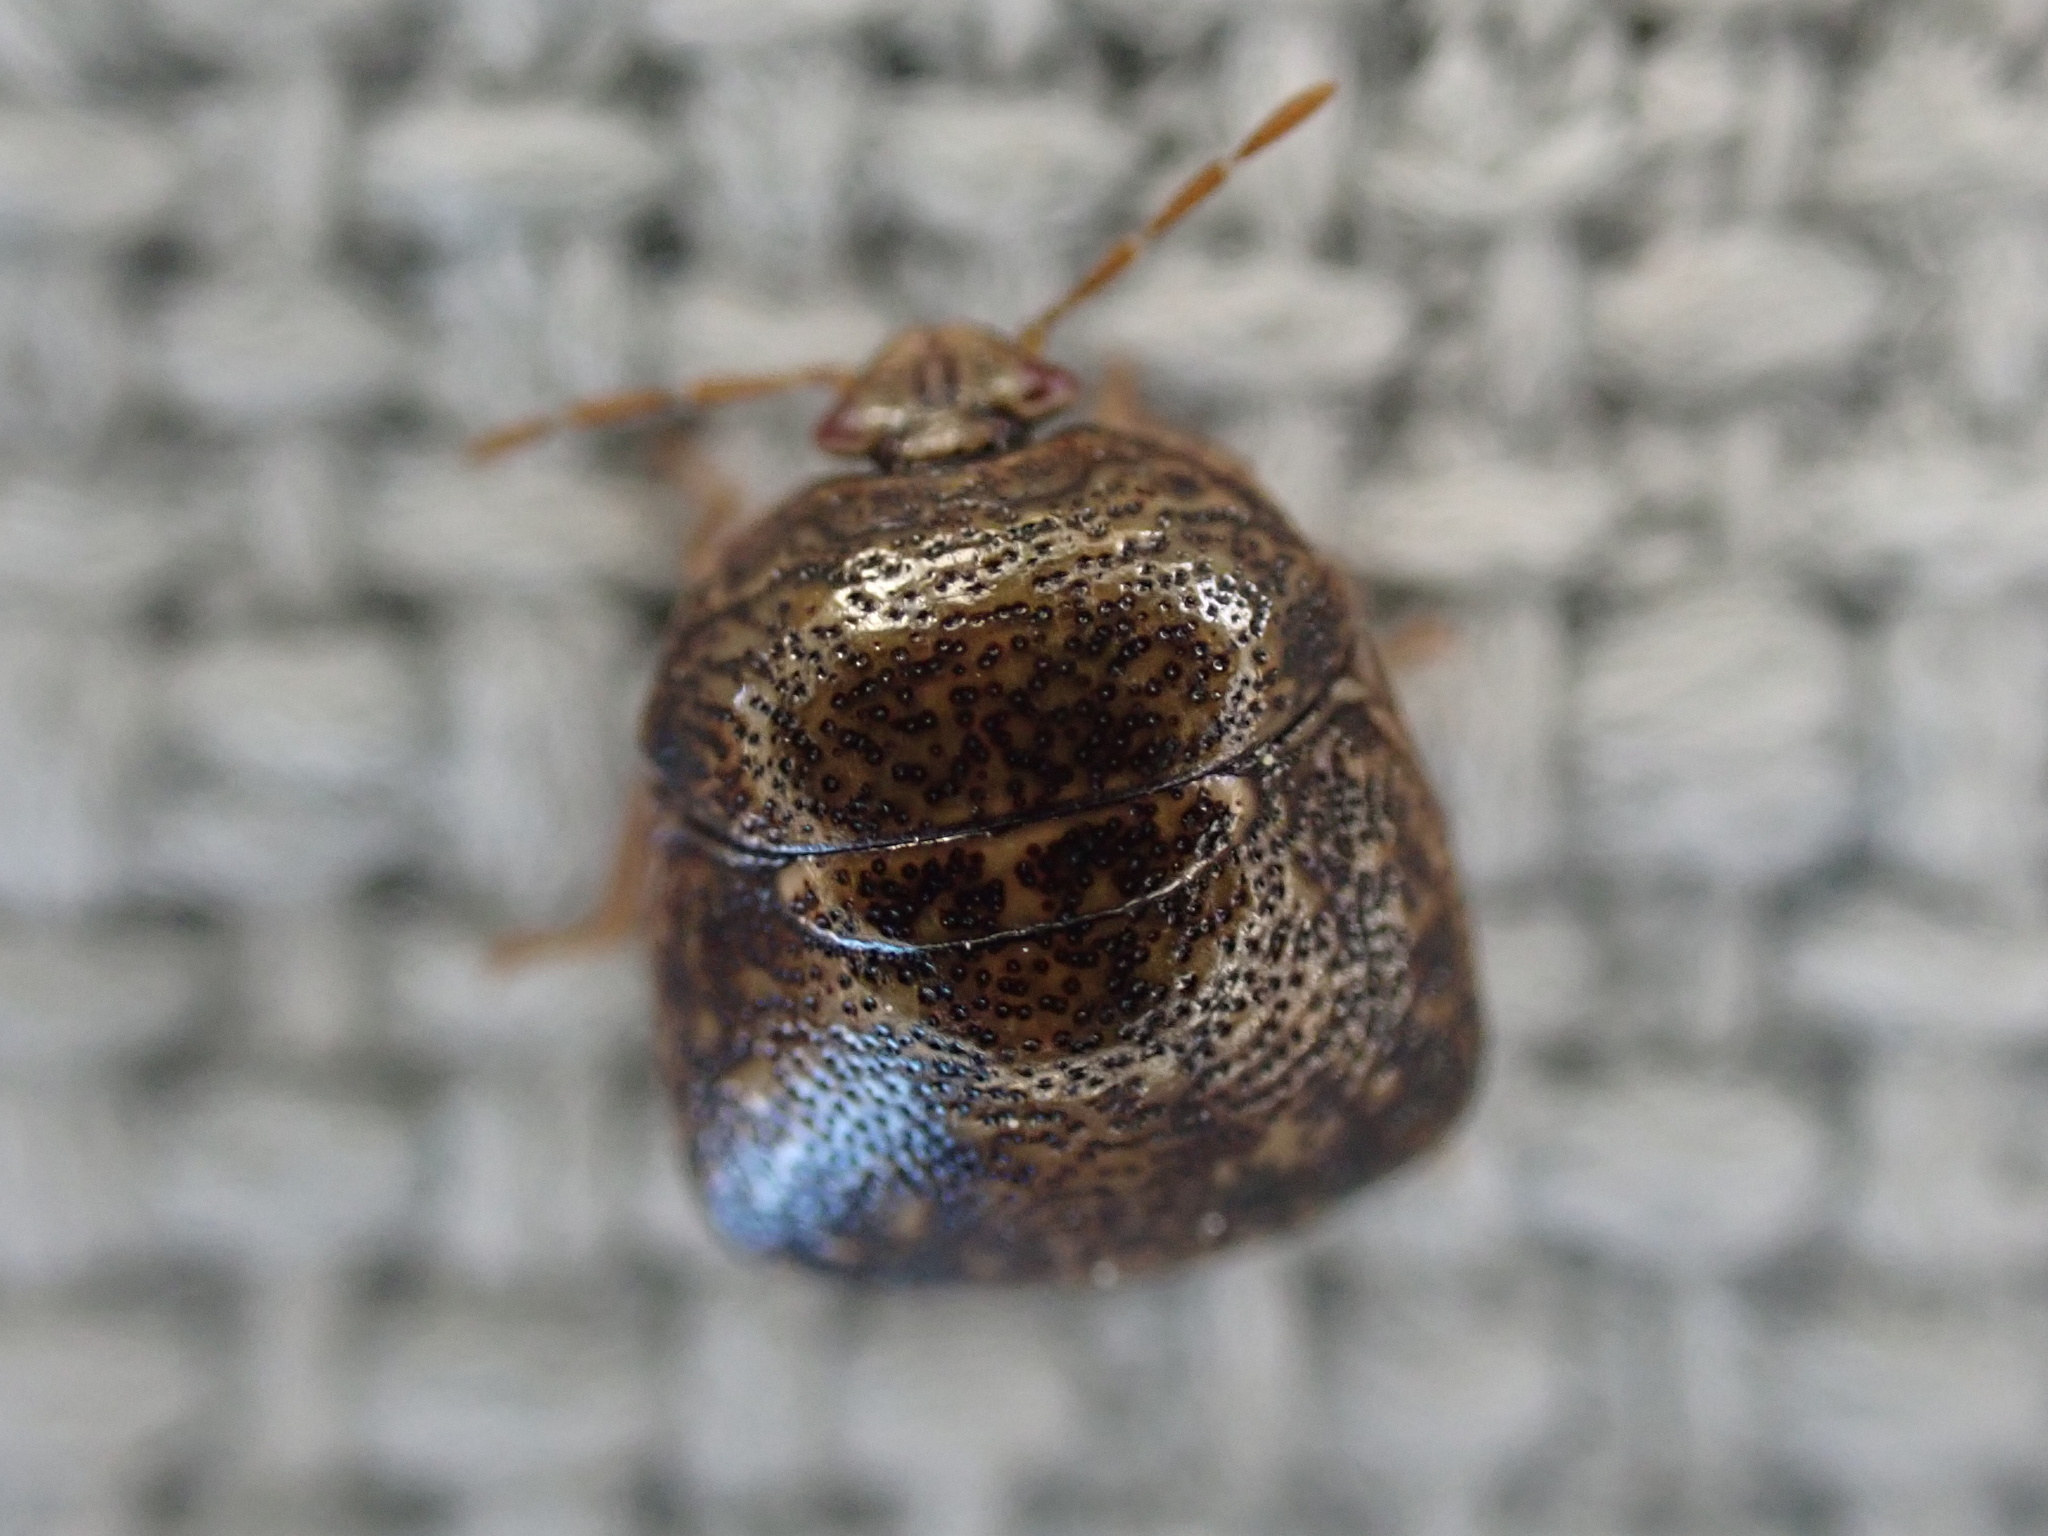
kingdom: Animalia
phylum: Arthropoda
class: Insecta
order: Hemiptera
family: Plataspidae
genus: Megacopta
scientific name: Megacopta cribraria
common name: Bean plataspid
